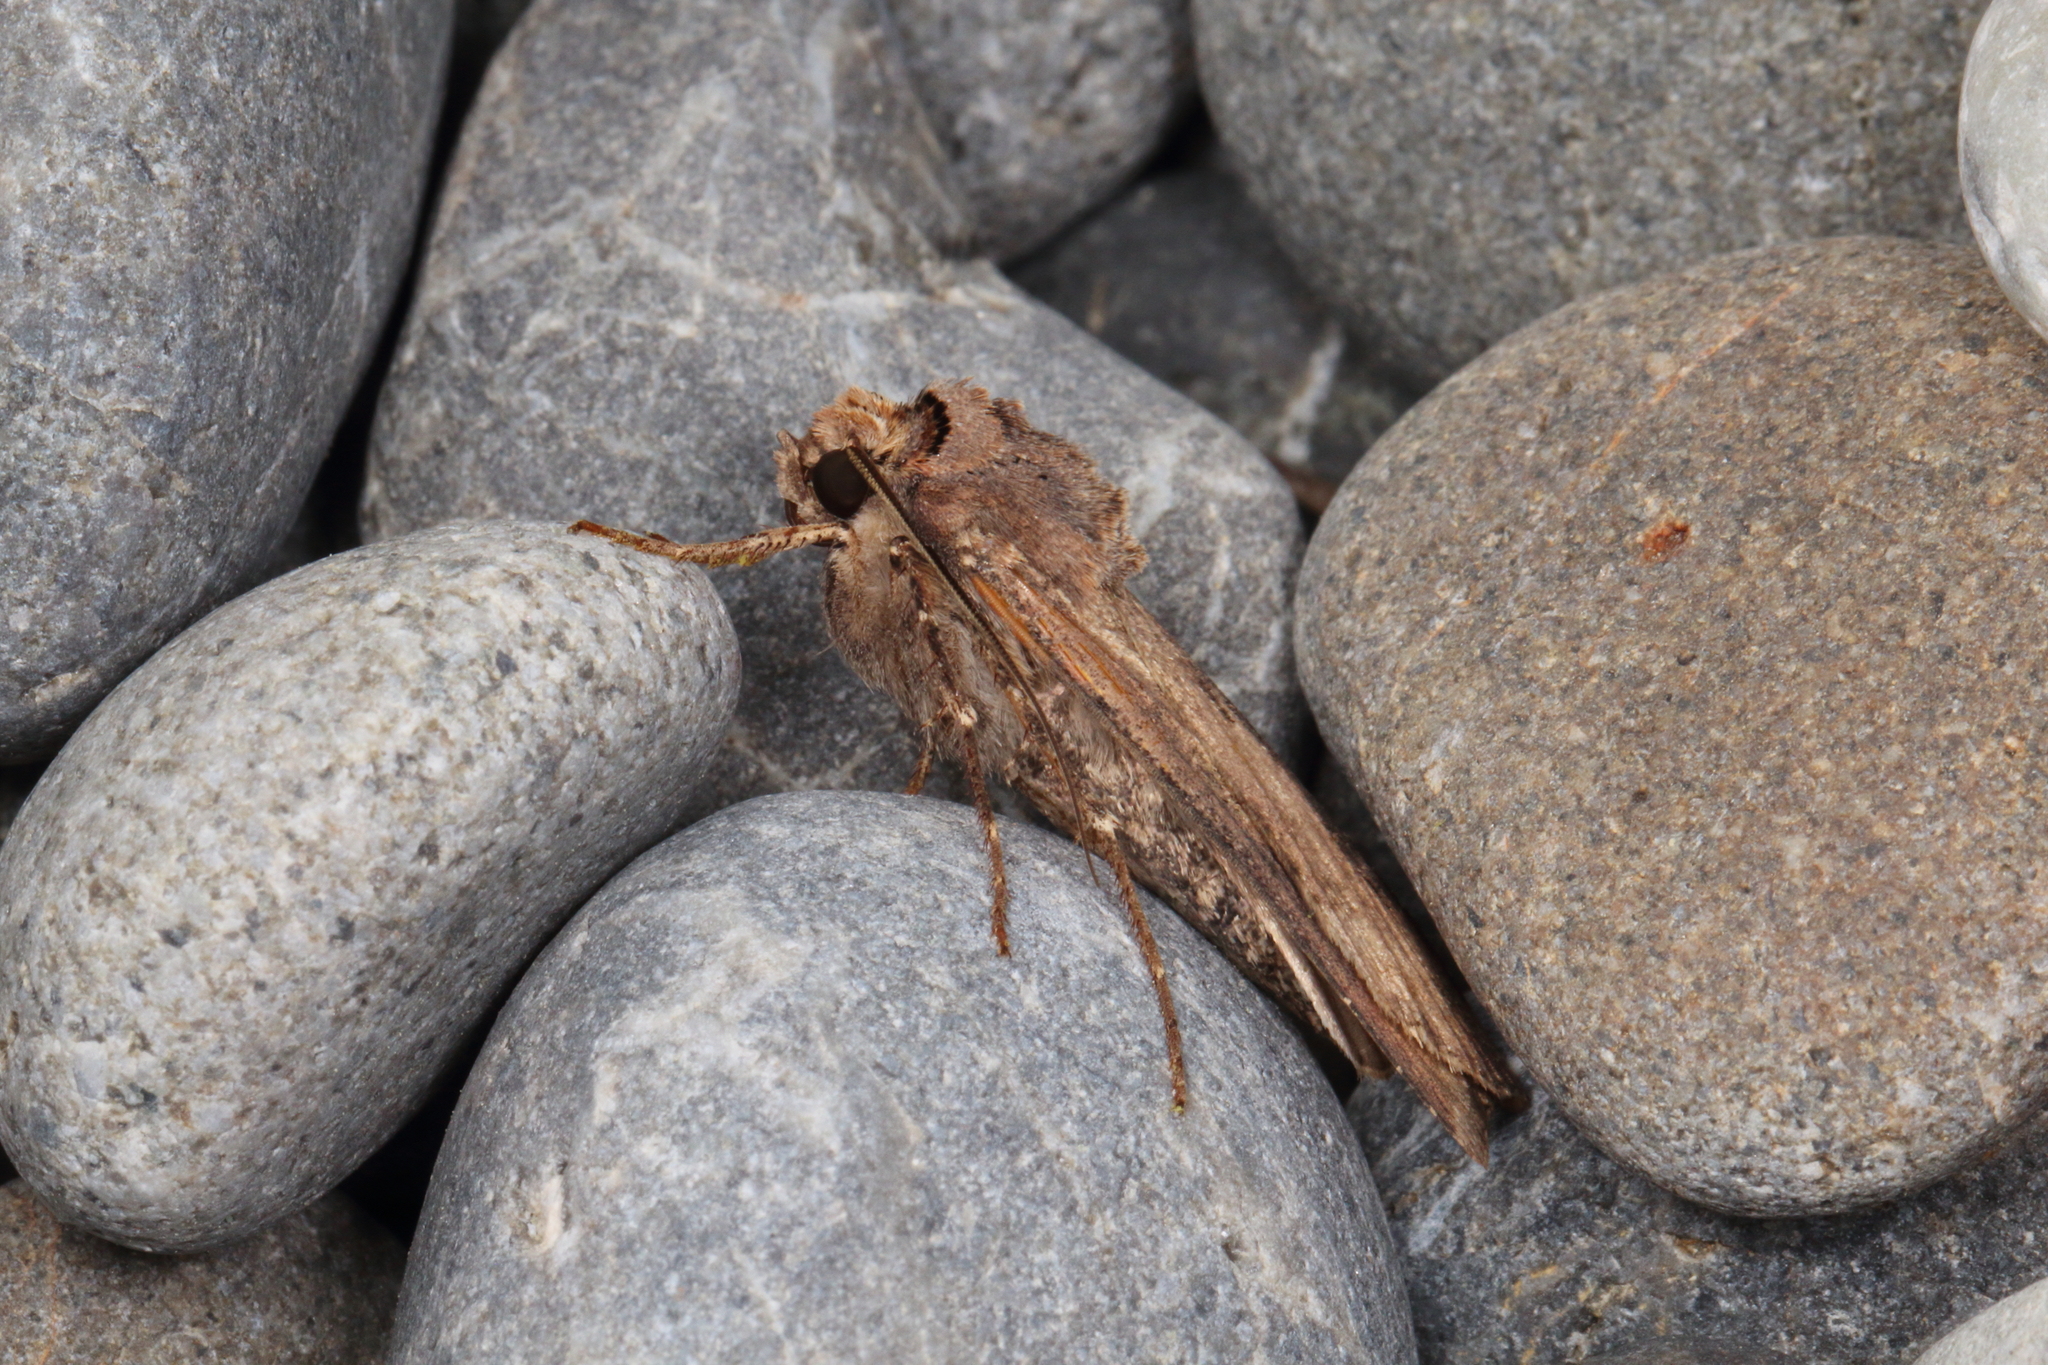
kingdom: Animalia
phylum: Arthropoda
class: Insecta
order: Lepidoptera
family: Noctuidae
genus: Agrotis
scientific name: Agrotis ipsilon
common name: Dark sword-grass
